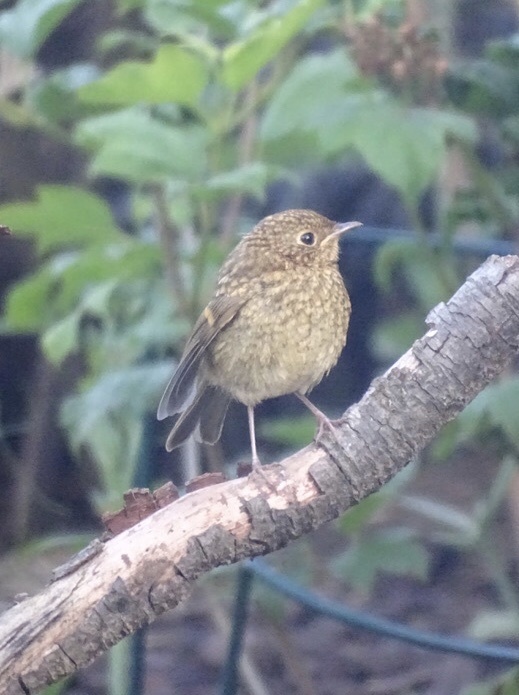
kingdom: Animalia
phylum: Chordata
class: Aves
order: Passeriformes
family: Muscicapidae
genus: Erithacus
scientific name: Erithacus rubecula
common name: European robin
